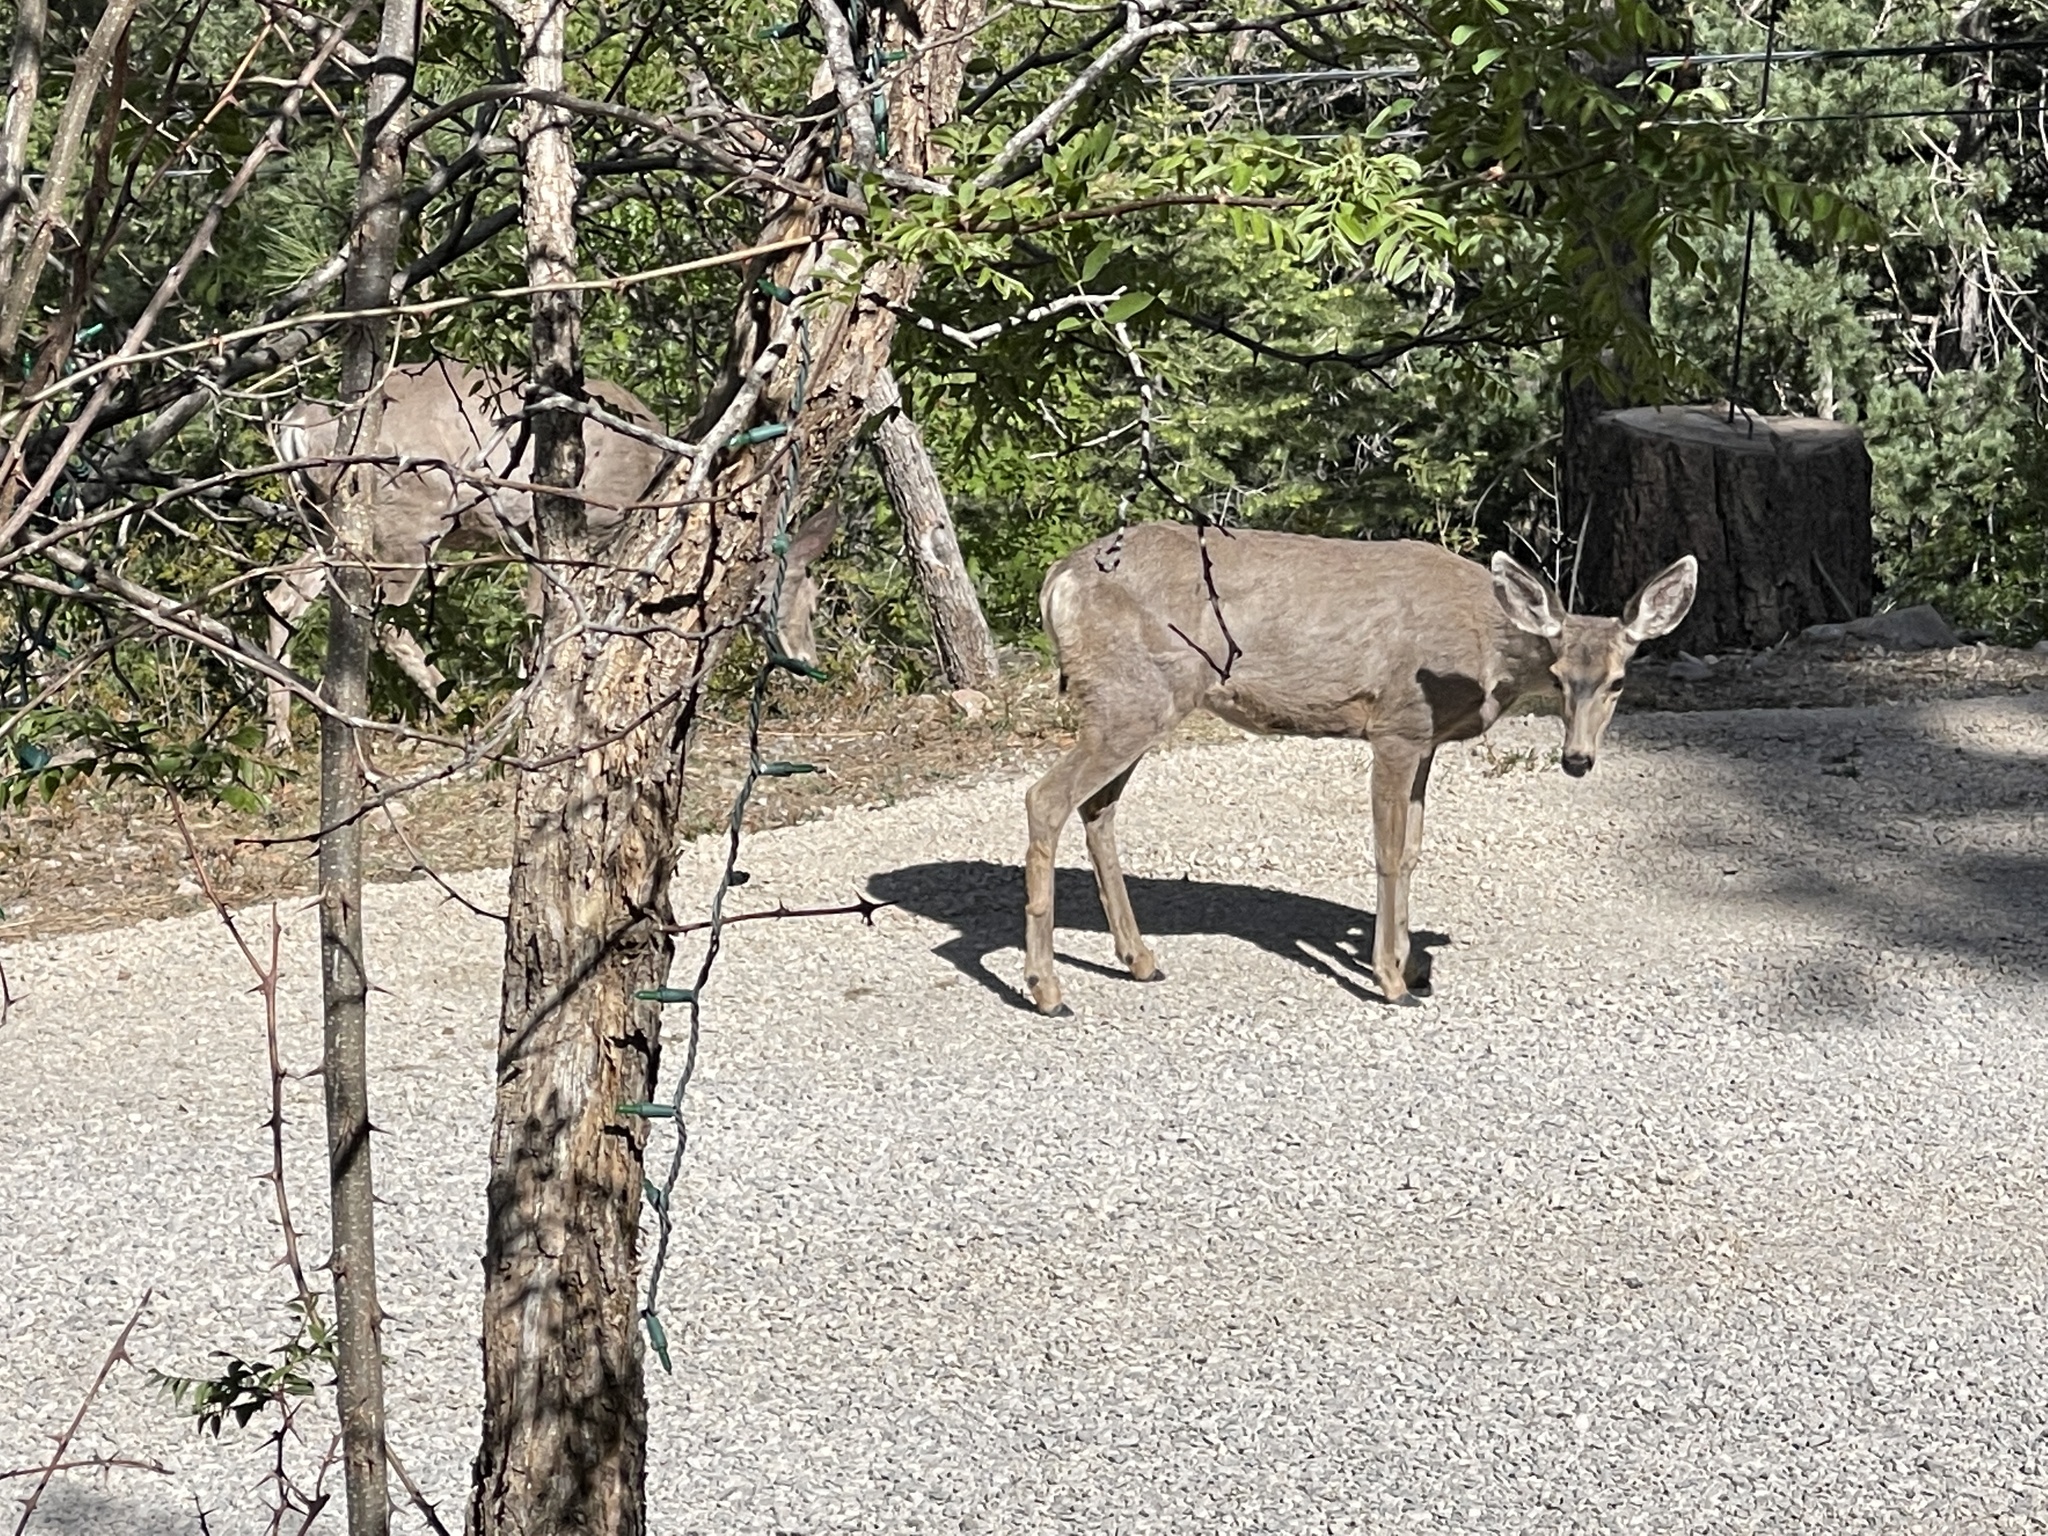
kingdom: Animalia
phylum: Chordata
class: Mammalia
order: Artiodactyla
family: Cervidae
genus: Odocoileus
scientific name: Odocoileus hemionus
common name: Mule deer
